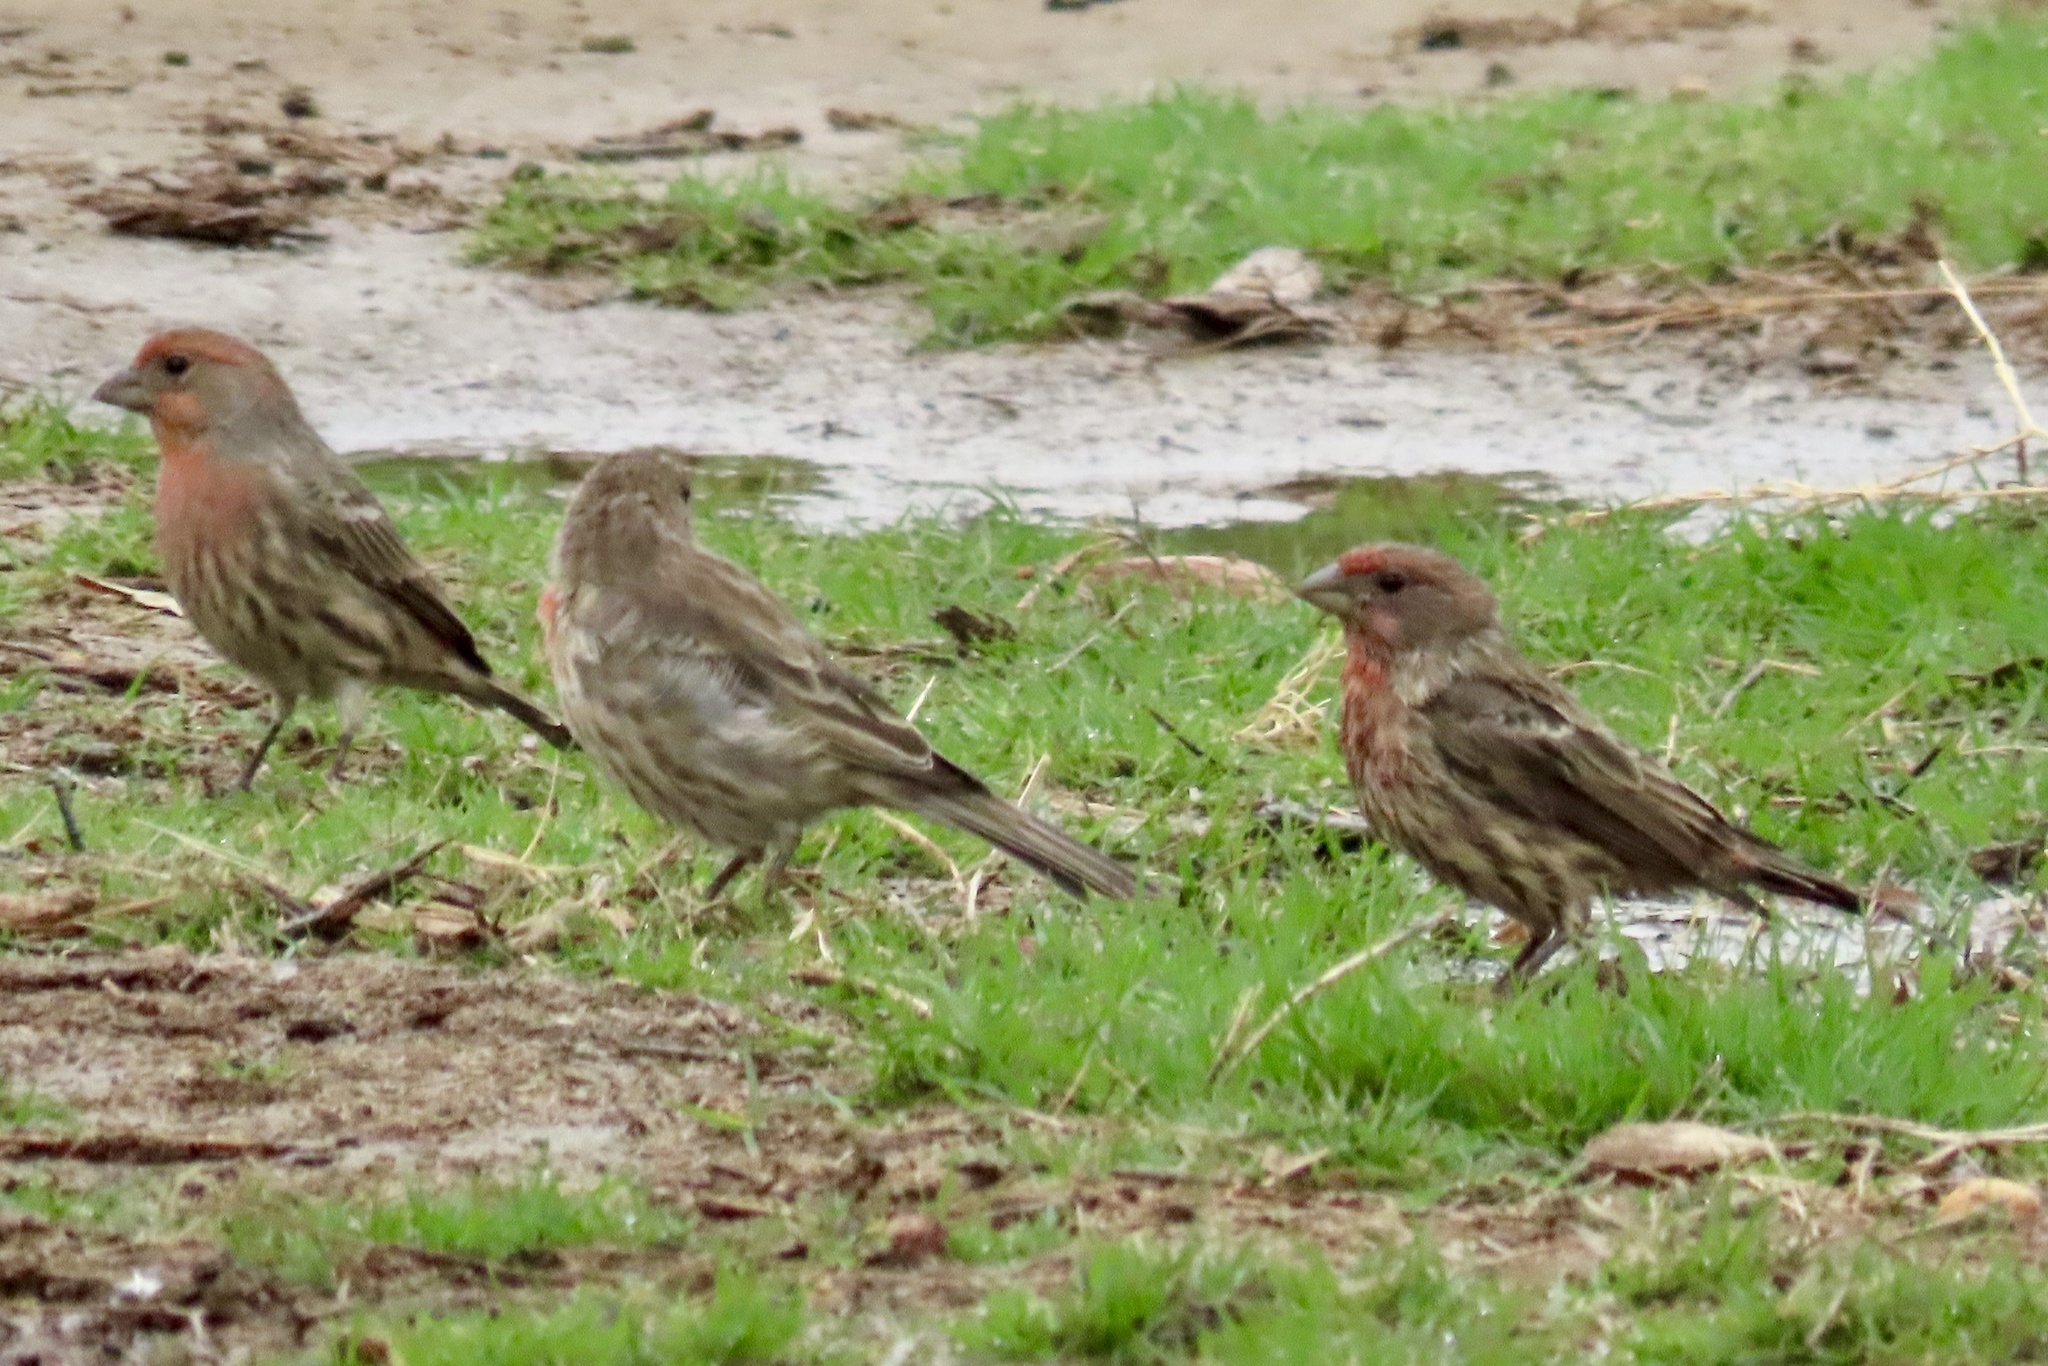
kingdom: Animalia
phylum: Chordata
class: Aves
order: Passeriformes
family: Fringillidae
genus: Haemorhous
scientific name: Haemorhous mexicanus
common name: House finch
